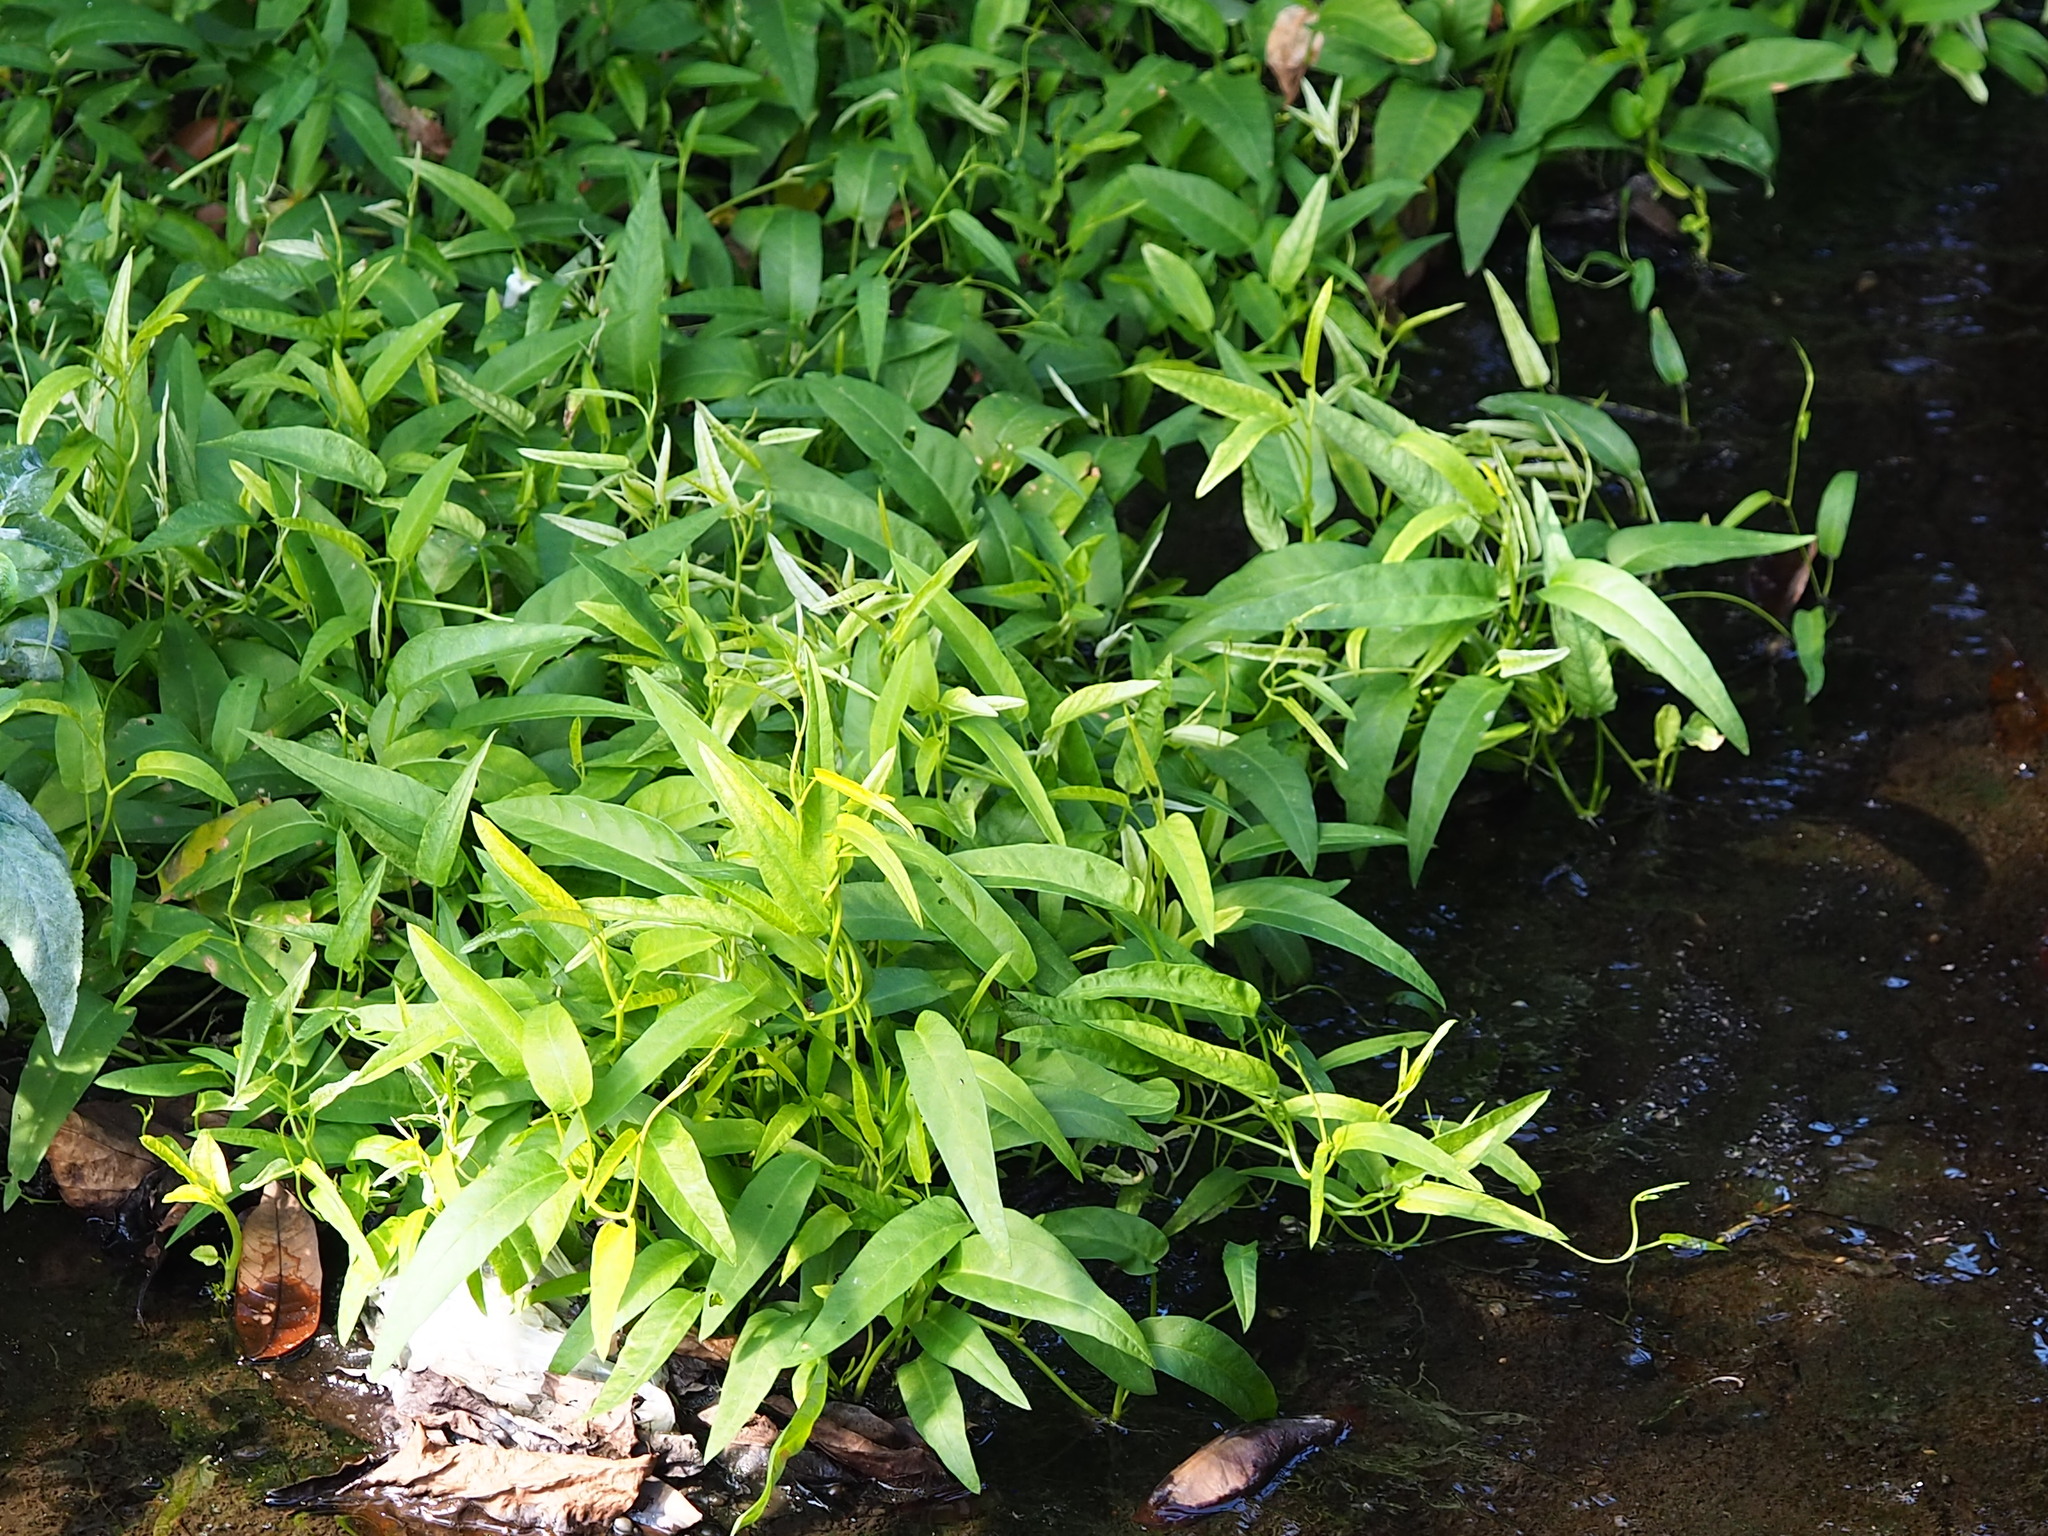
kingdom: Plantae
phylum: Tracheophyta
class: Magnoliopsida
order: Solanales
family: Convolvulaceae
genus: Ipomoea
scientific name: Ipomoea aquatica
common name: Swamp morning-glory
